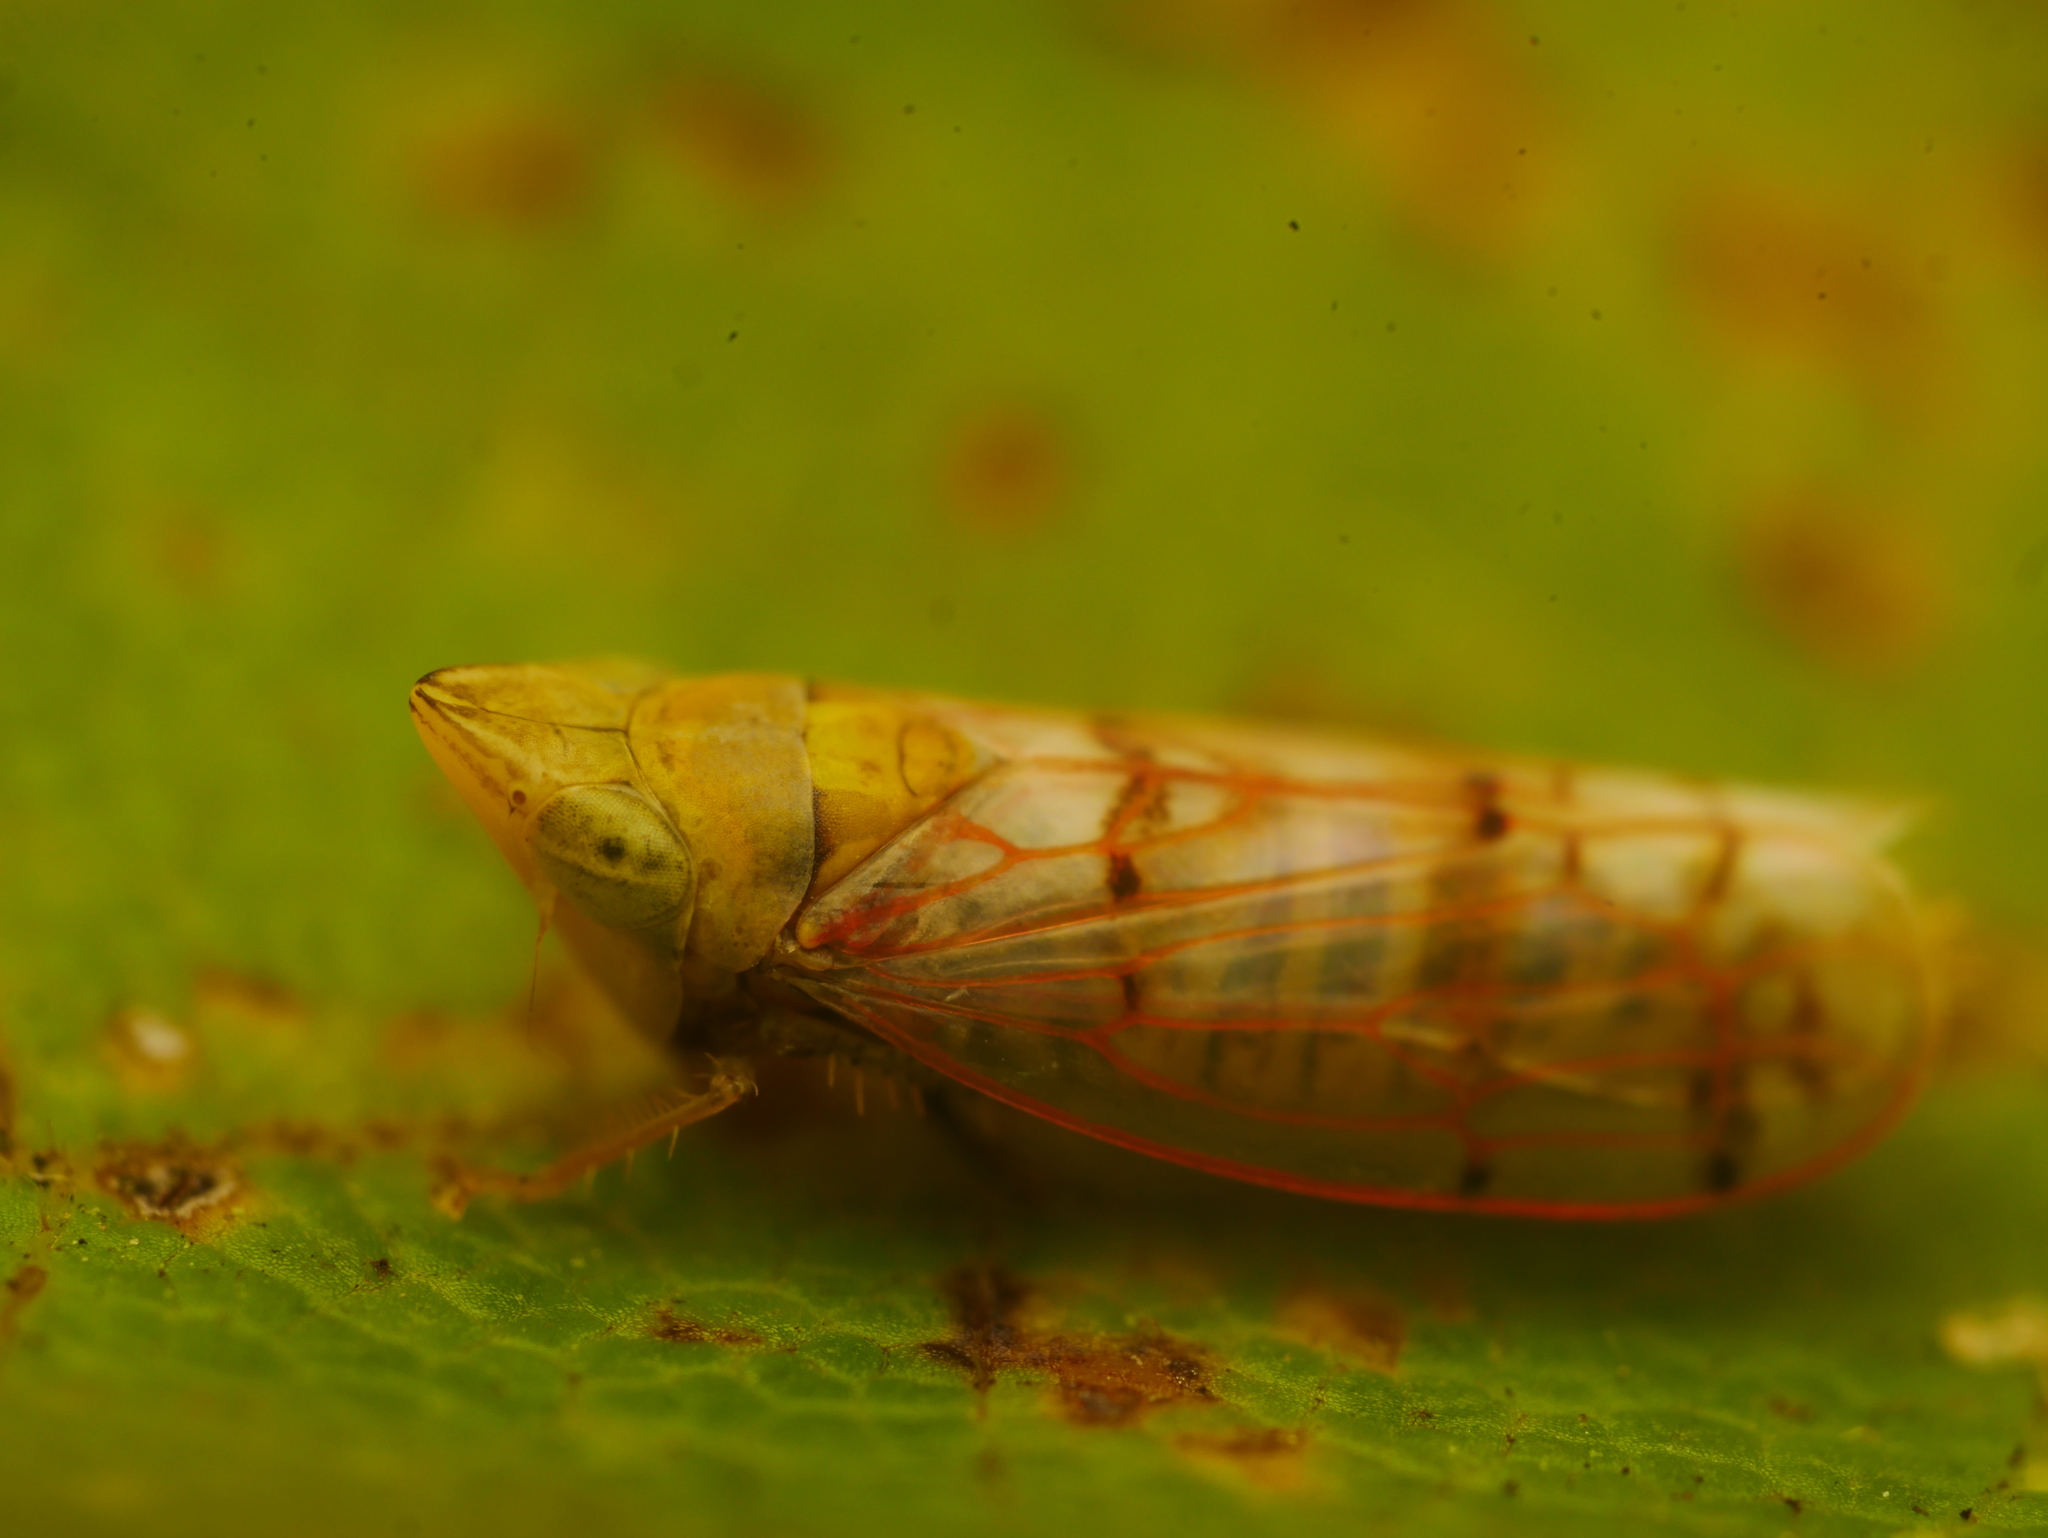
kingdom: Animalia
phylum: Arthropoda
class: Insecta
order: Hemiptera
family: Cicadellidae
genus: Japananus
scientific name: Japananus hyalinus
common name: The japanese maple leafhopper
